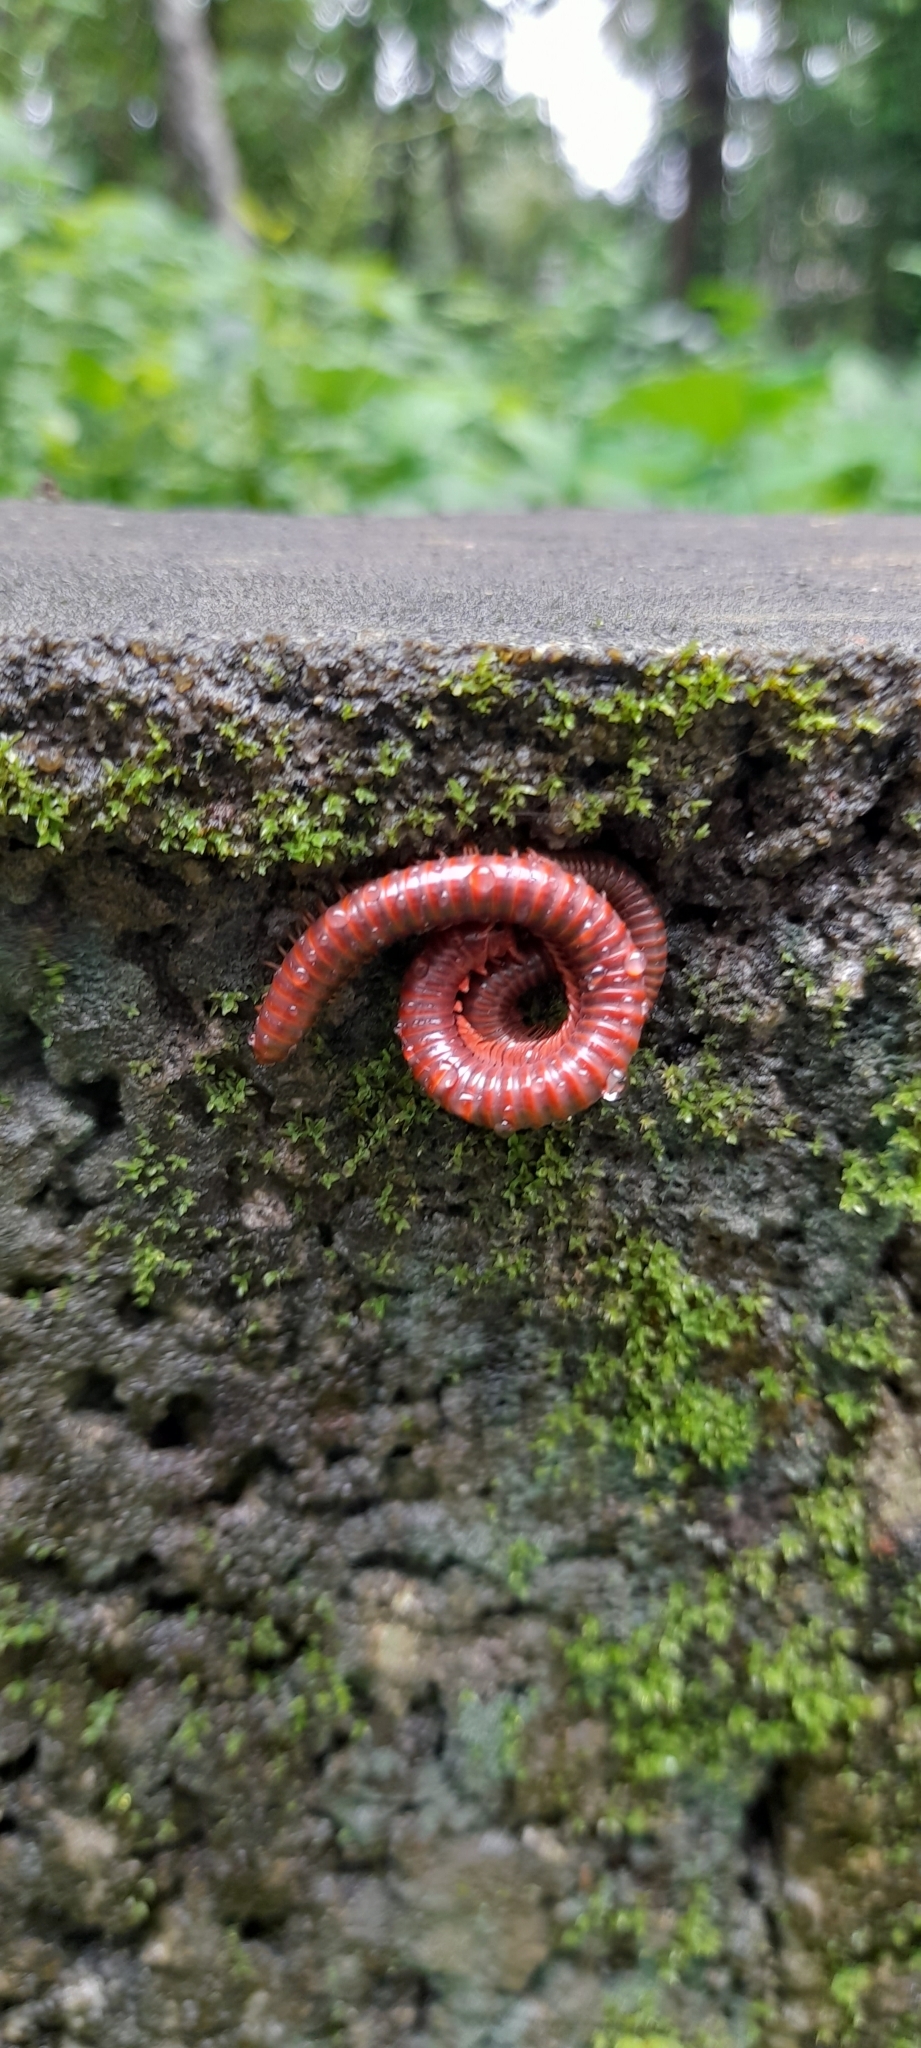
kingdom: Animalia
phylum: Arthropoda
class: Diplopoda
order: Spirobolida
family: Pachybolidae
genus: Trigoniulus
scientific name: Trigoniulus corallinus
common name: Millipede
